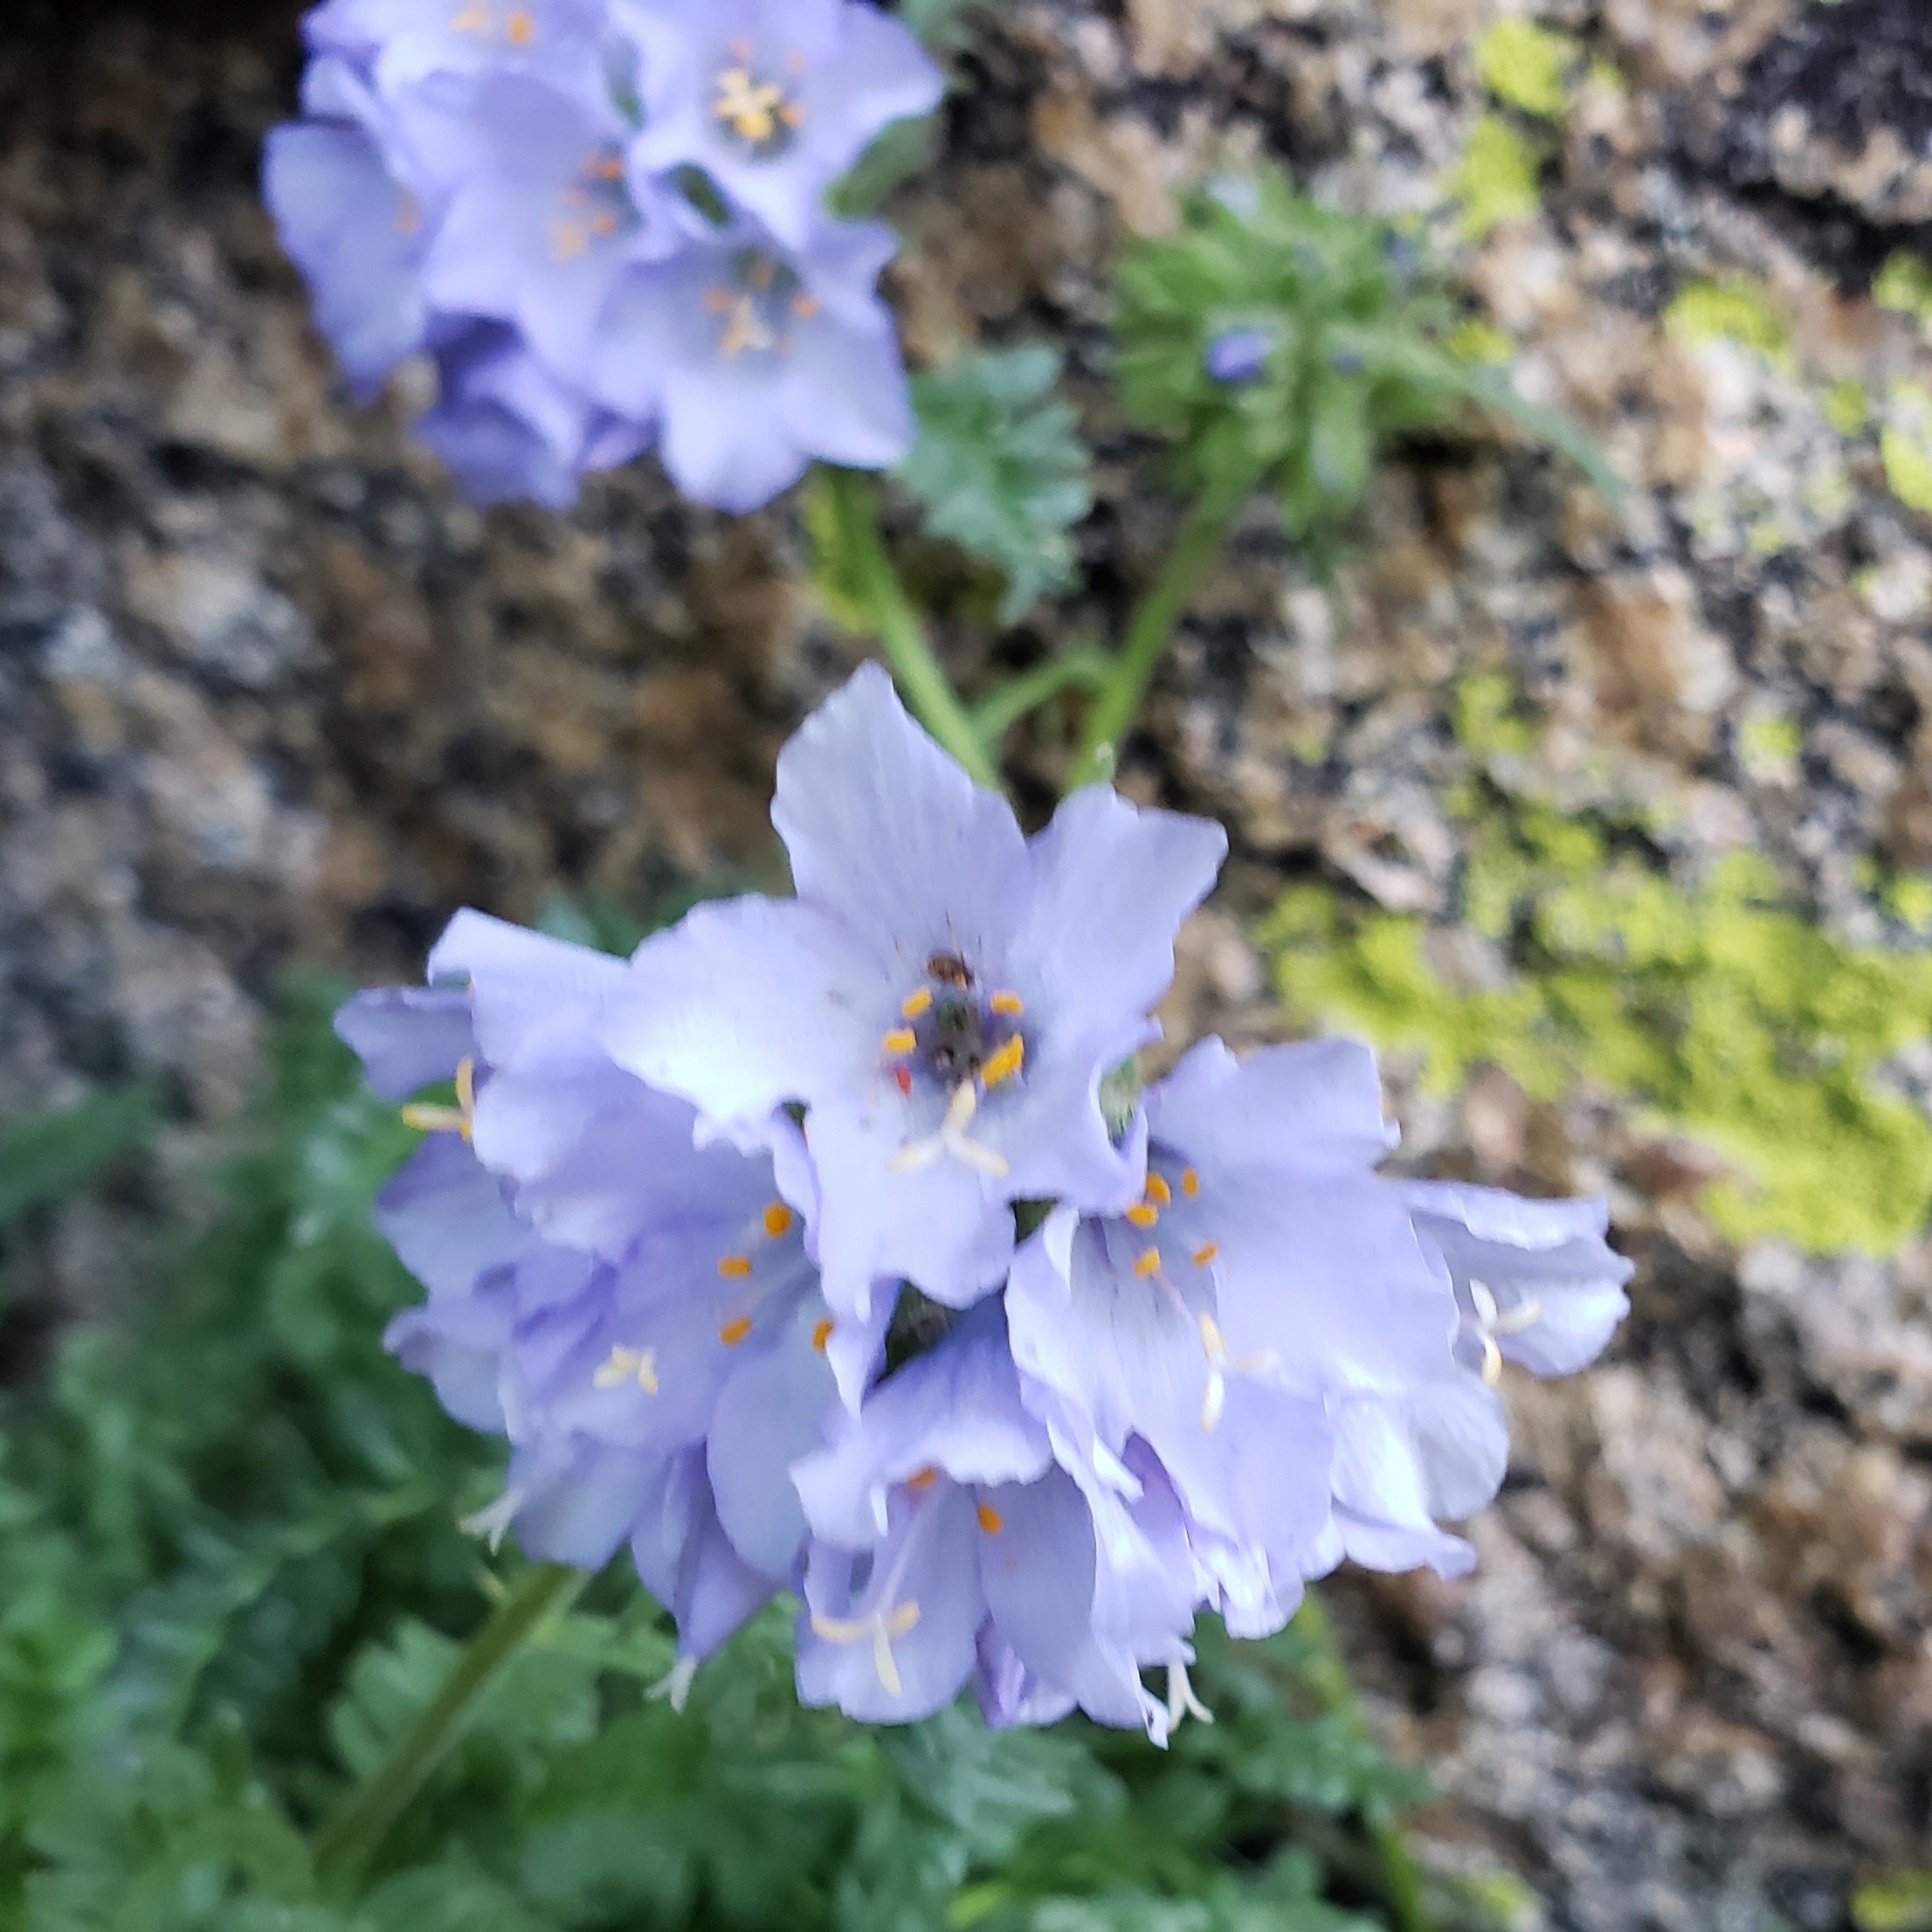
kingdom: Plantae
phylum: Tracheophyta
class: Magnoliopsida
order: Ericales
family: Polemoniaceae
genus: Polemonium
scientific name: Polemonium viscosum
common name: Skunk jacob's-ladder
